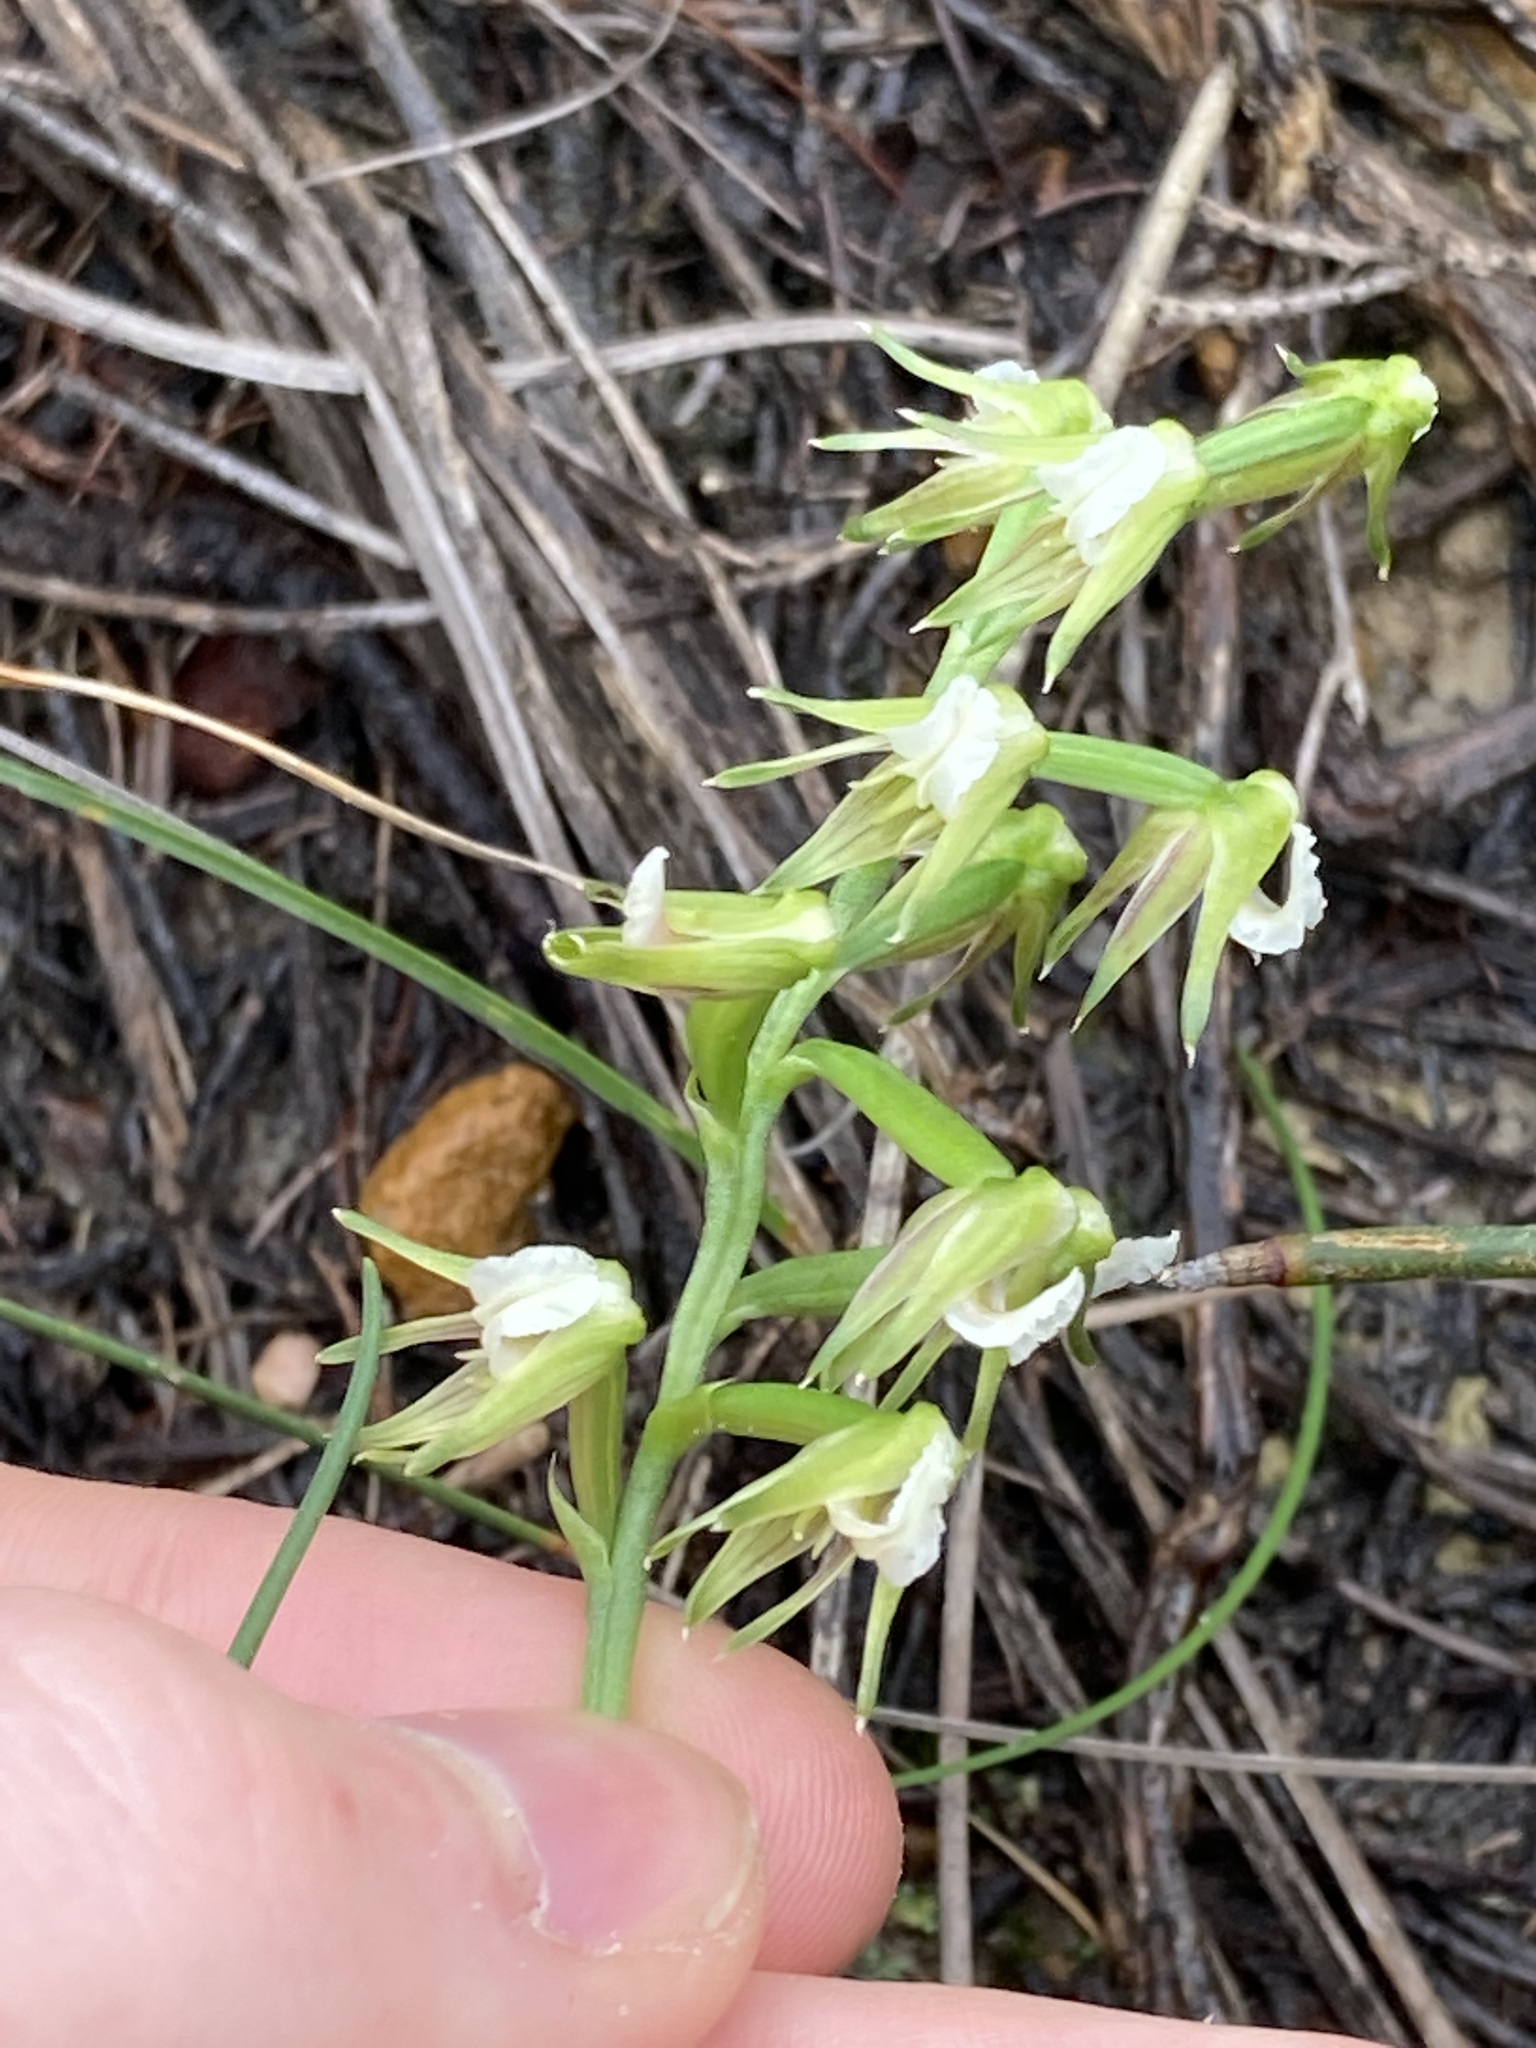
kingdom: Plantae
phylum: Tracheophyta
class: Liliopsida
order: Asparagales
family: Orchidaceae
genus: Prasophyllum
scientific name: Prasophyllum parvifolium
